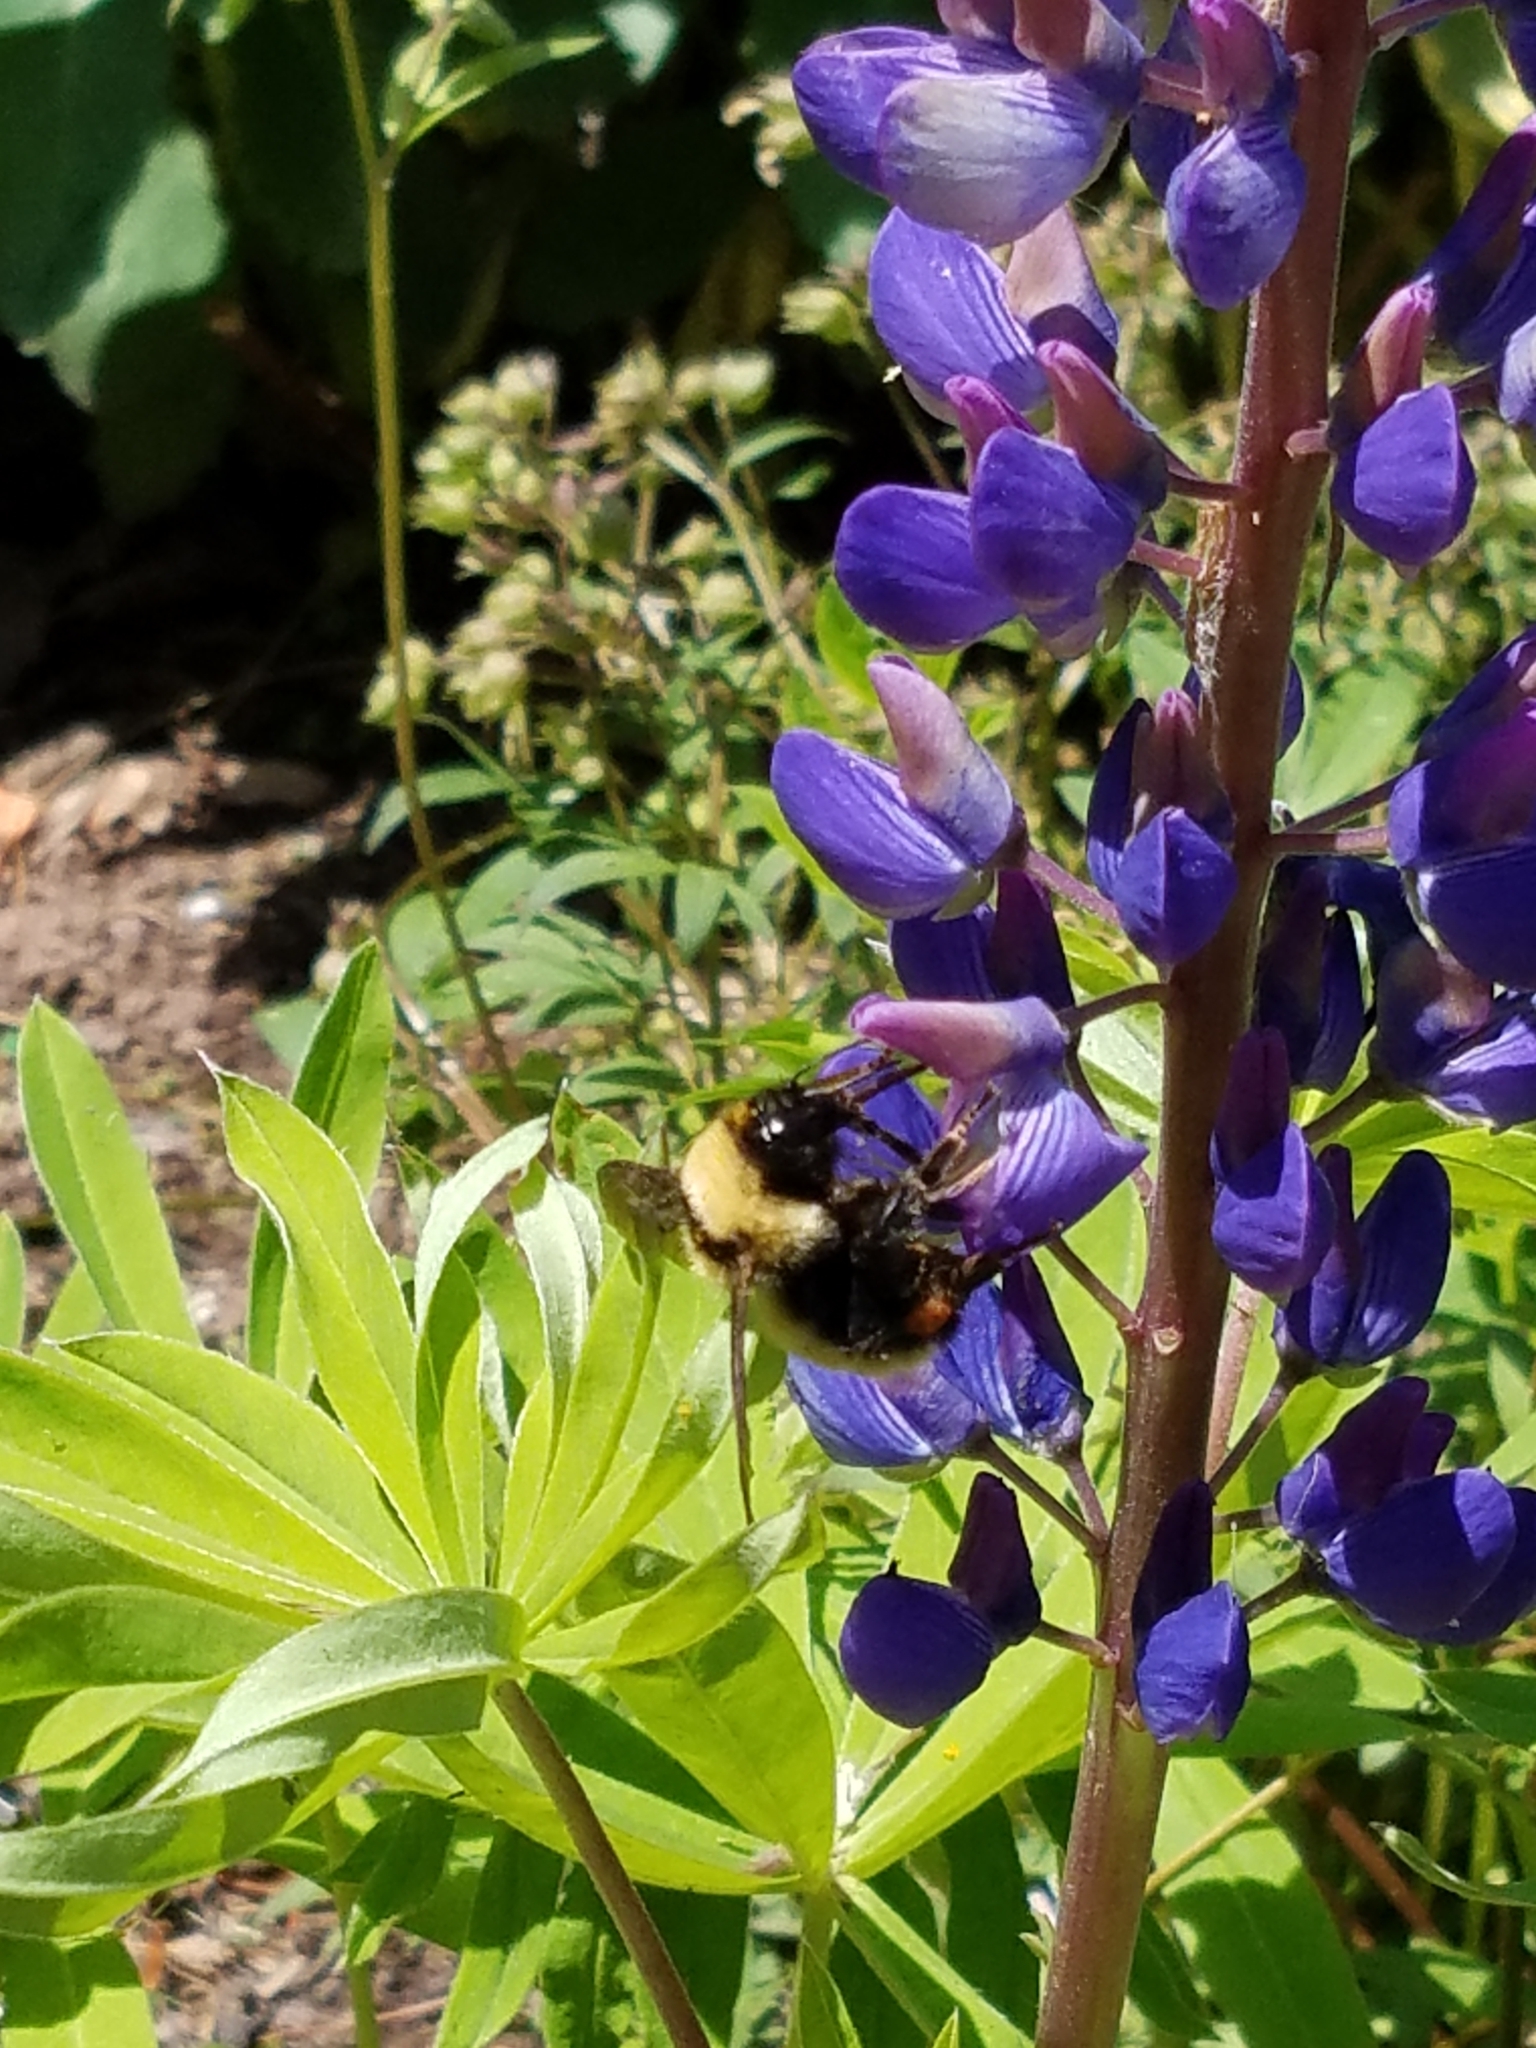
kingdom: Animalia
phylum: Arthropoda
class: Insecta
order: Hymenoptera
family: Apidae
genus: Bombus
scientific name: Bombus fervidus
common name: Yellow bumble bee
